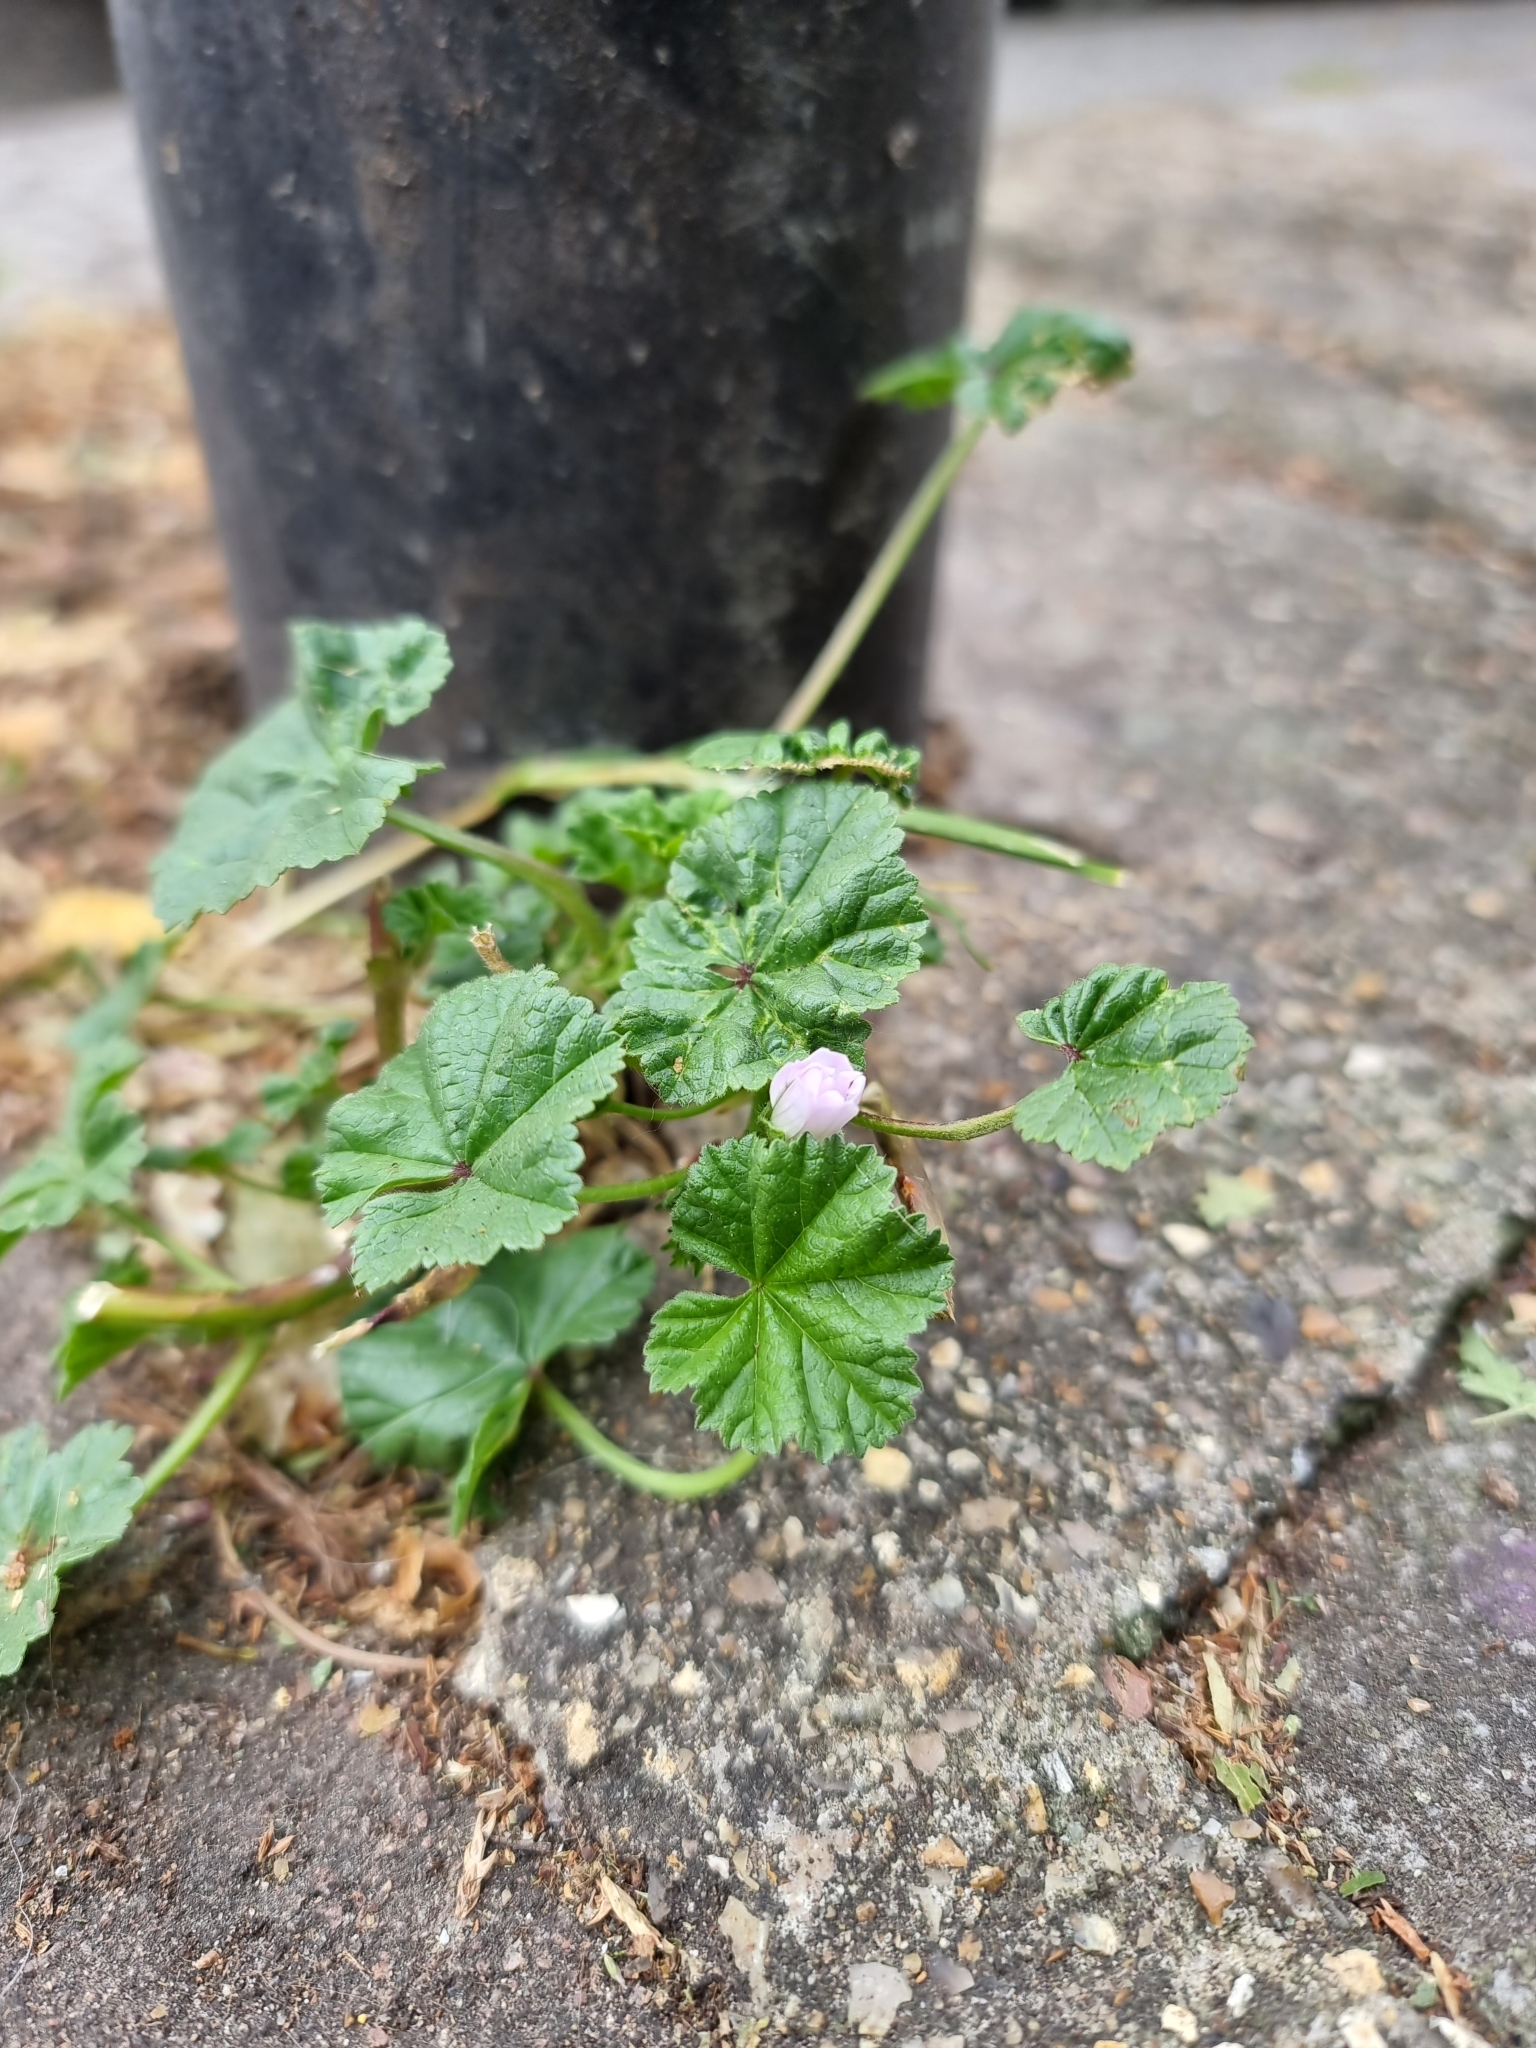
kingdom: Plantae
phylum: Tracheophyta
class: Magnoliopsida
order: Malvales
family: Malvaceae
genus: Malva
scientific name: Malva neglecta
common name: Common mallow
